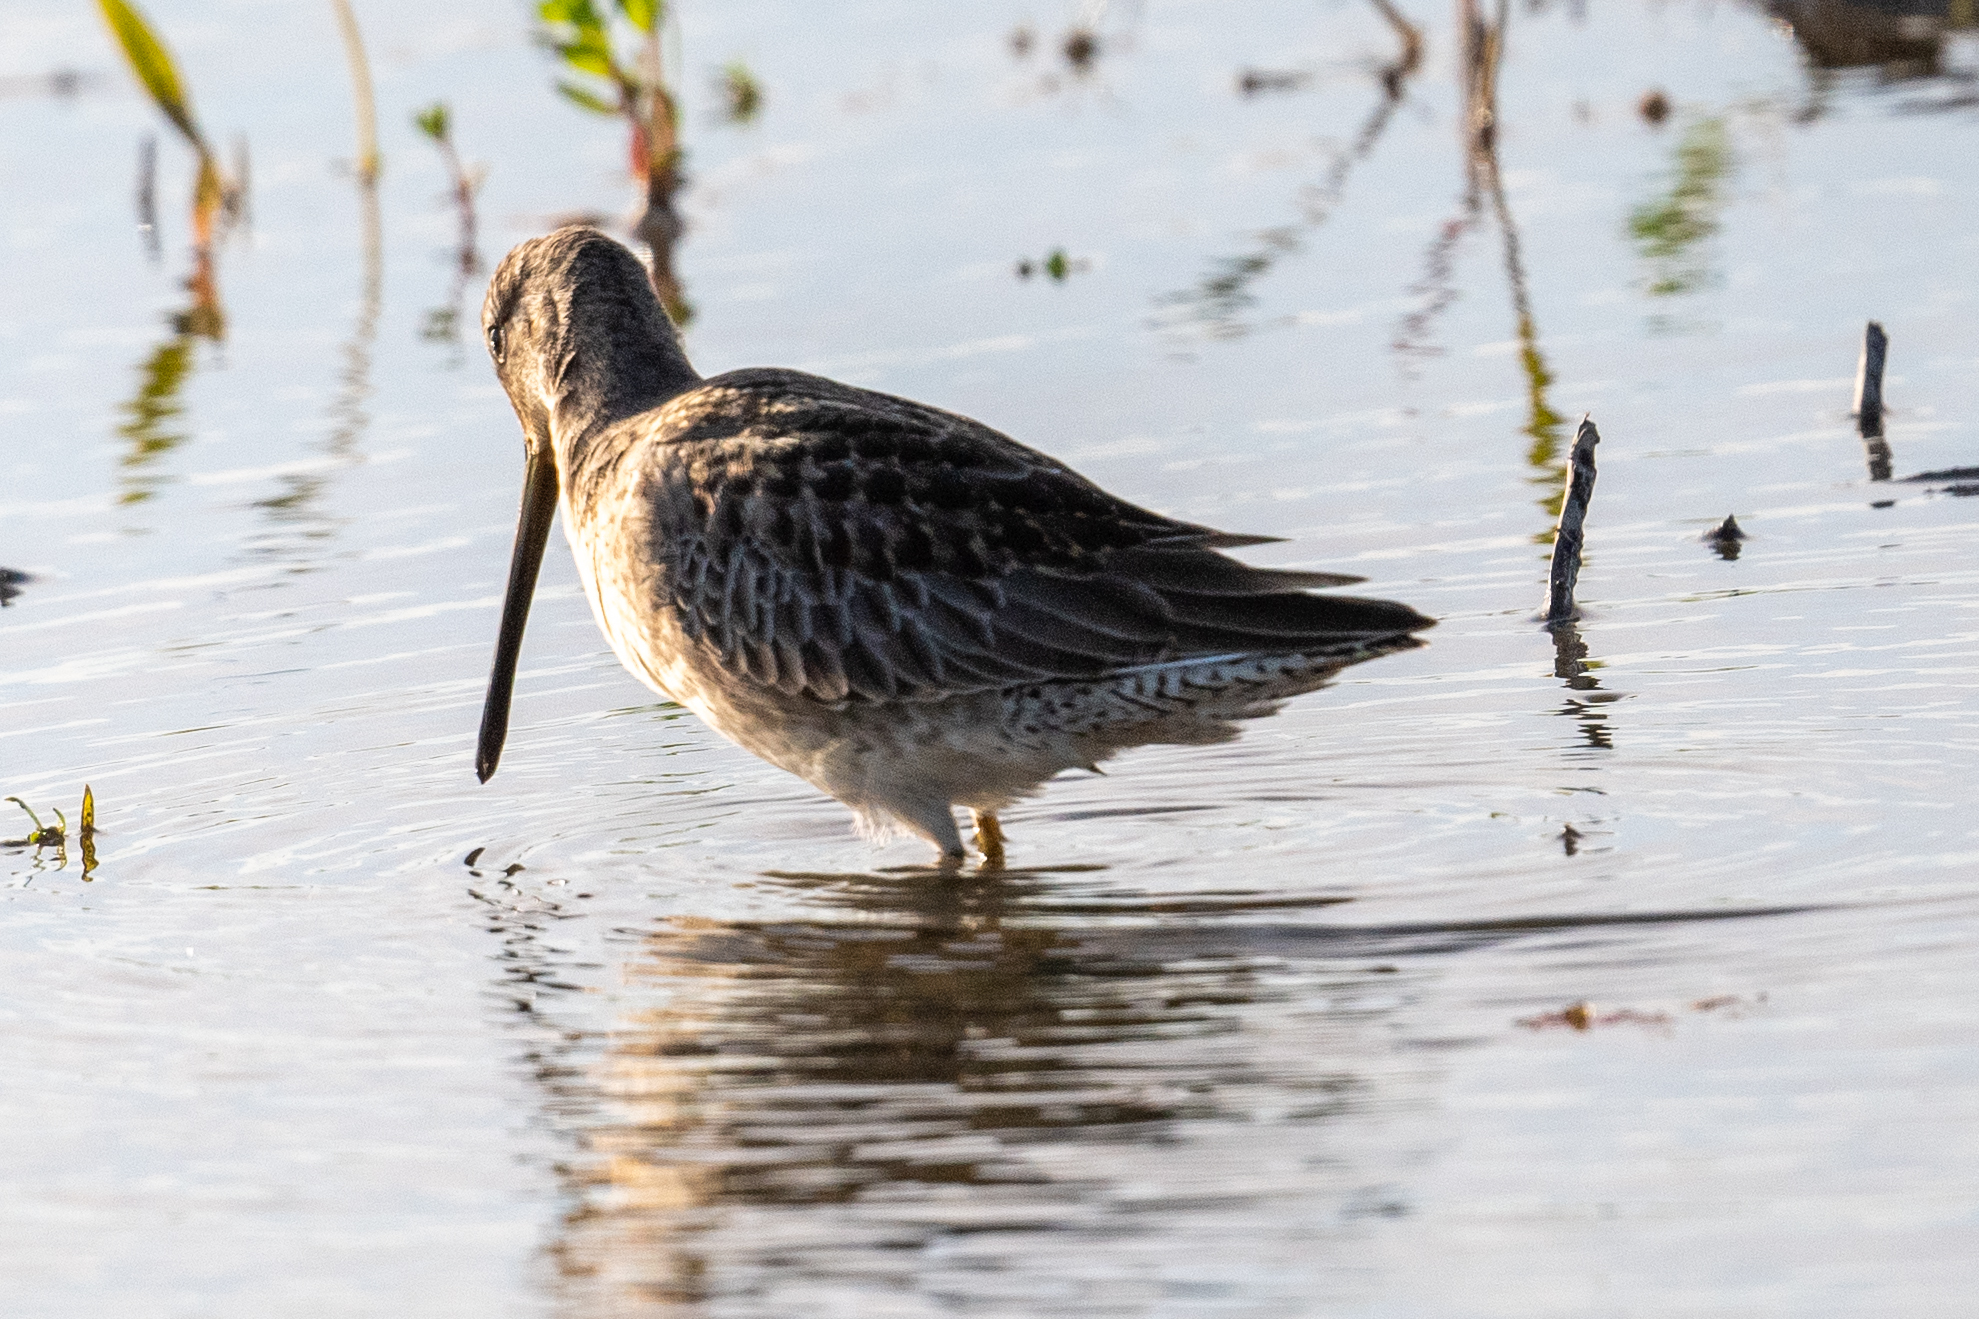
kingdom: Animalia
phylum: Chordata
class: Aves
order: Charadriiformes
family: Scolopacidae
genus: Limnodromus
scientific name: Limnodromus scolopaceus
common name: Long-billed dowitcher
